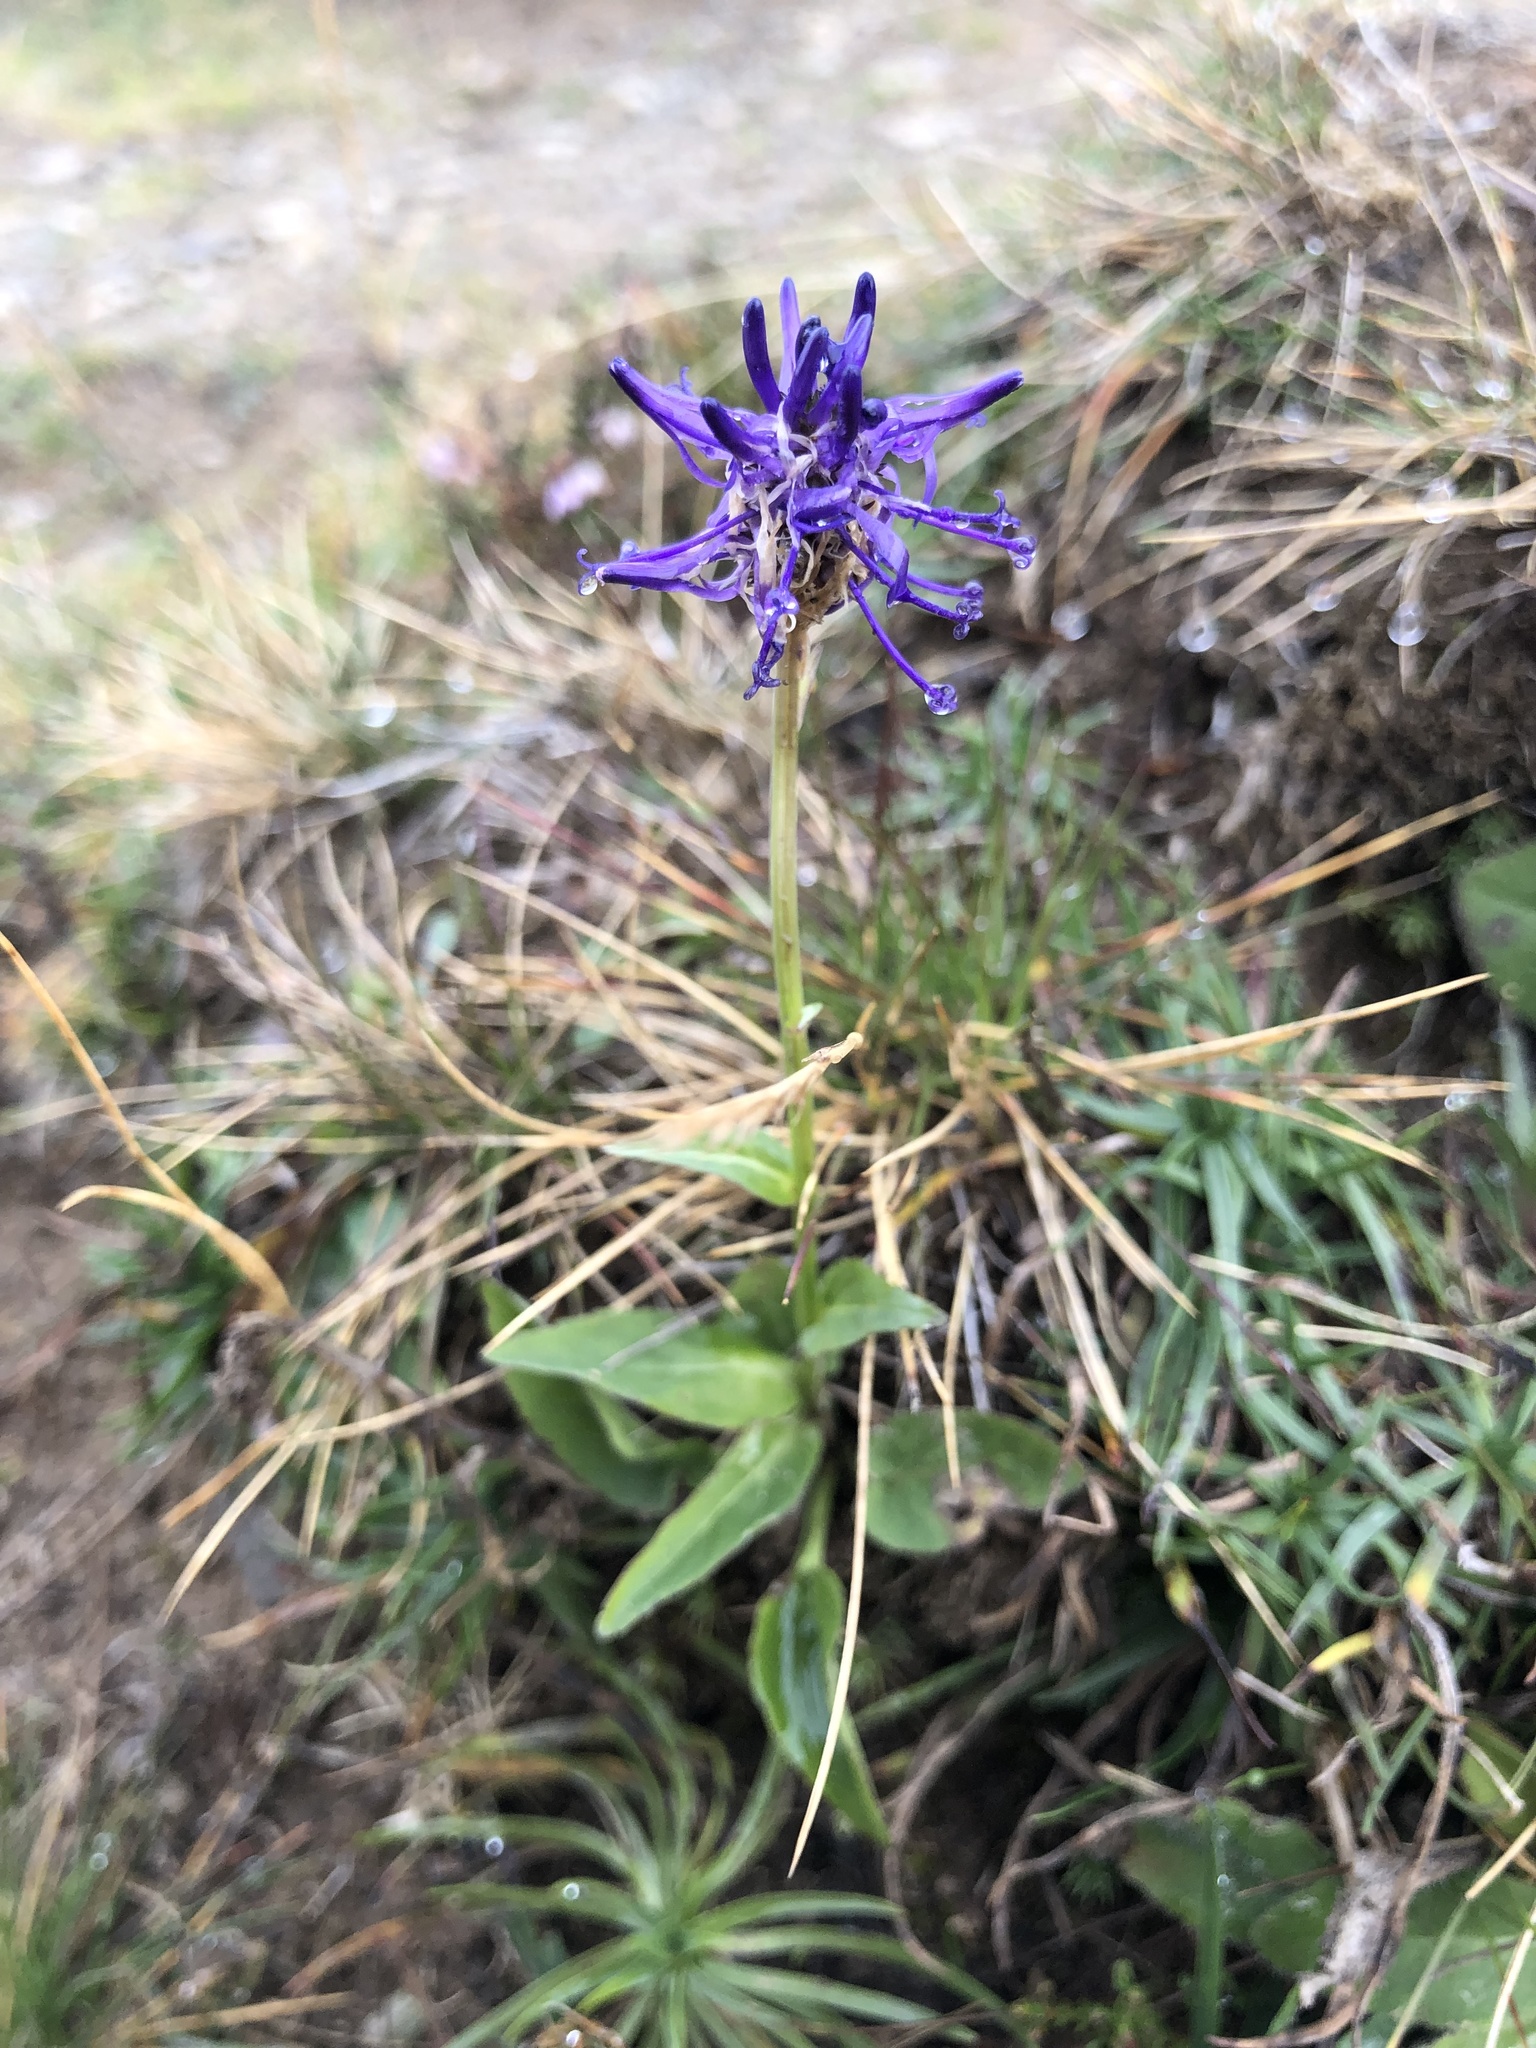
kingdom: Plantae
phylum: Tracheophyta
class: Magnoliopsida
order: Asterales
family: Campanulaceae
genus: Phyteuma
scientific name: Phyteuma betonicifolium
